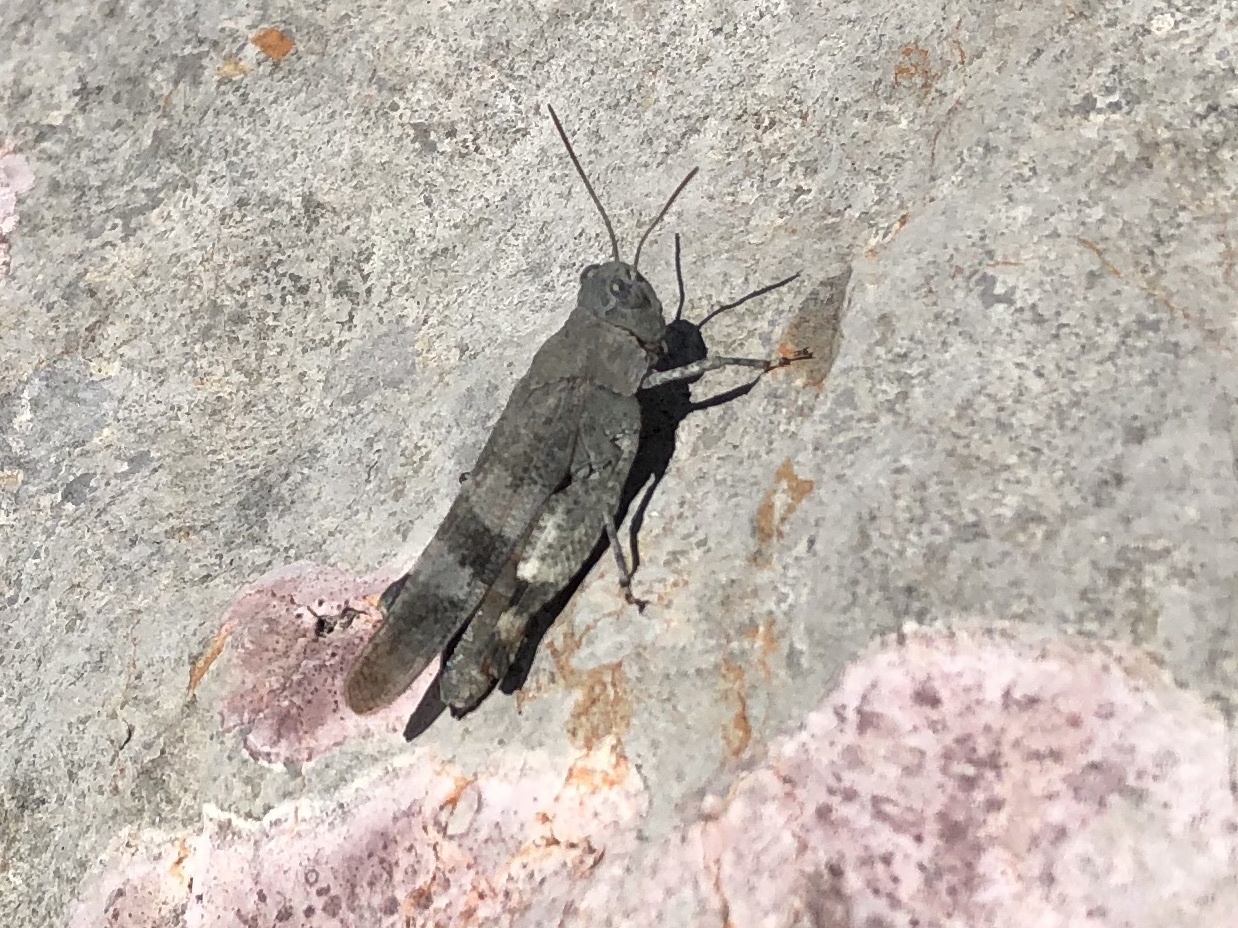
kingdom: Animalia
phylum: Arthropoda
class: Insecta
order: Orthoptera
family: Acrididae
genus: Oedipoda
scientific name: Oedipoda germanica
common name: Red band-winged grasshopper
